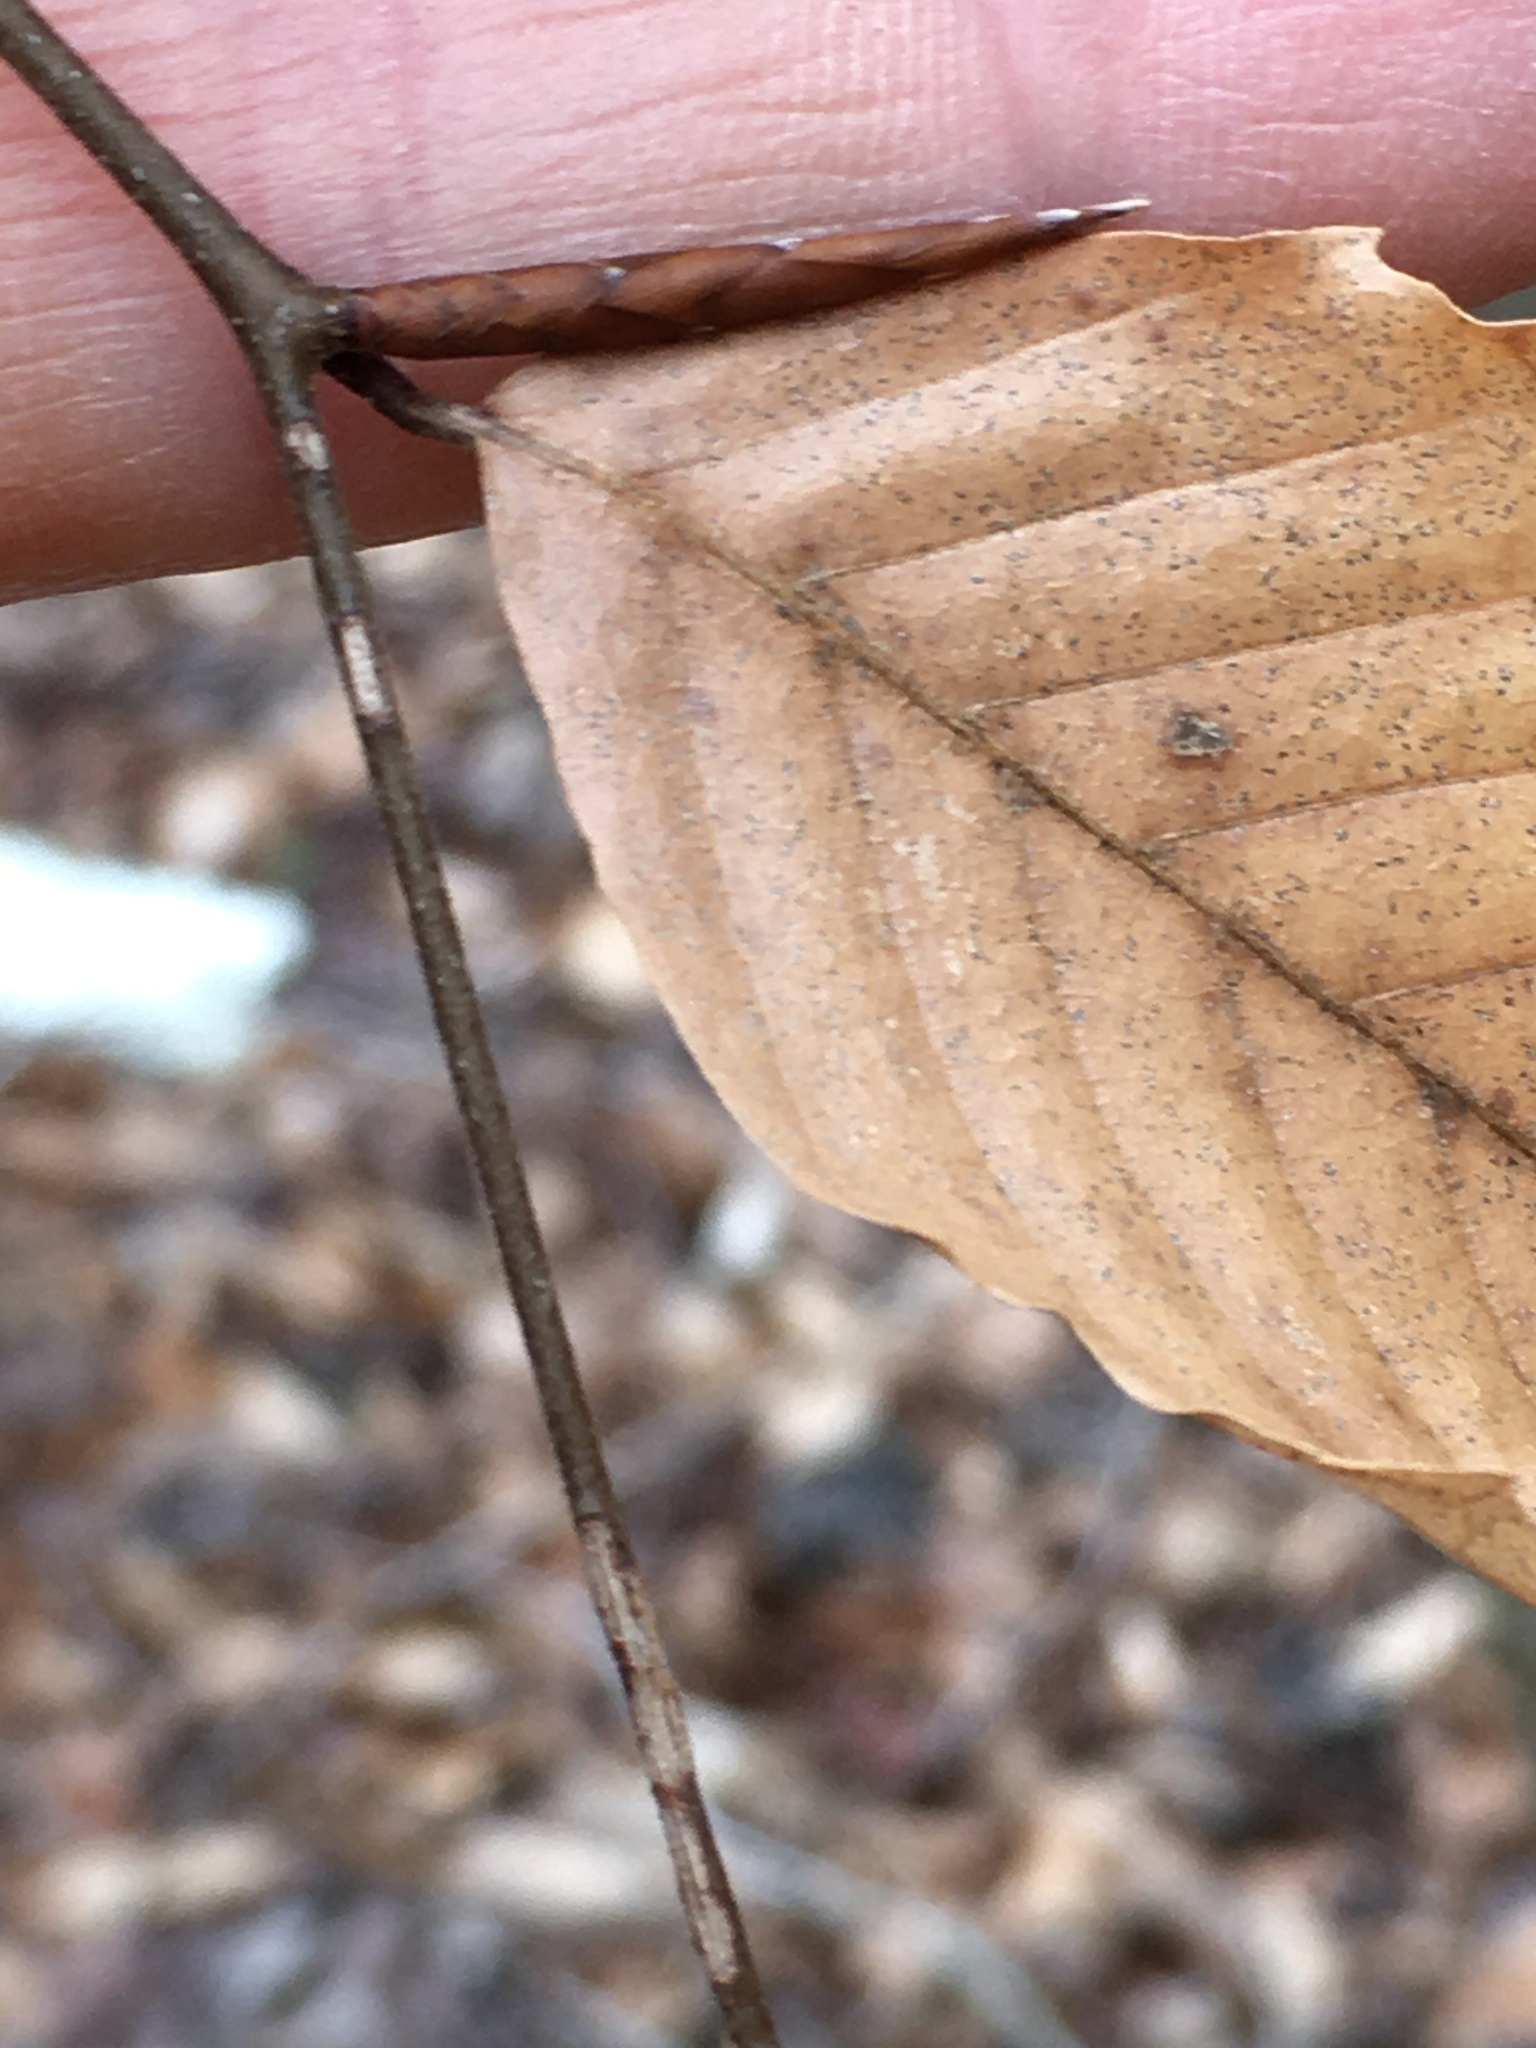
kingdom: Plantae
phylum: Tracheophyta
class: Magnoliopsida
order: Fagales
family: Fagaceae
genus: Fagus
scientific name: Fagus grandifolia
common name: American beech
